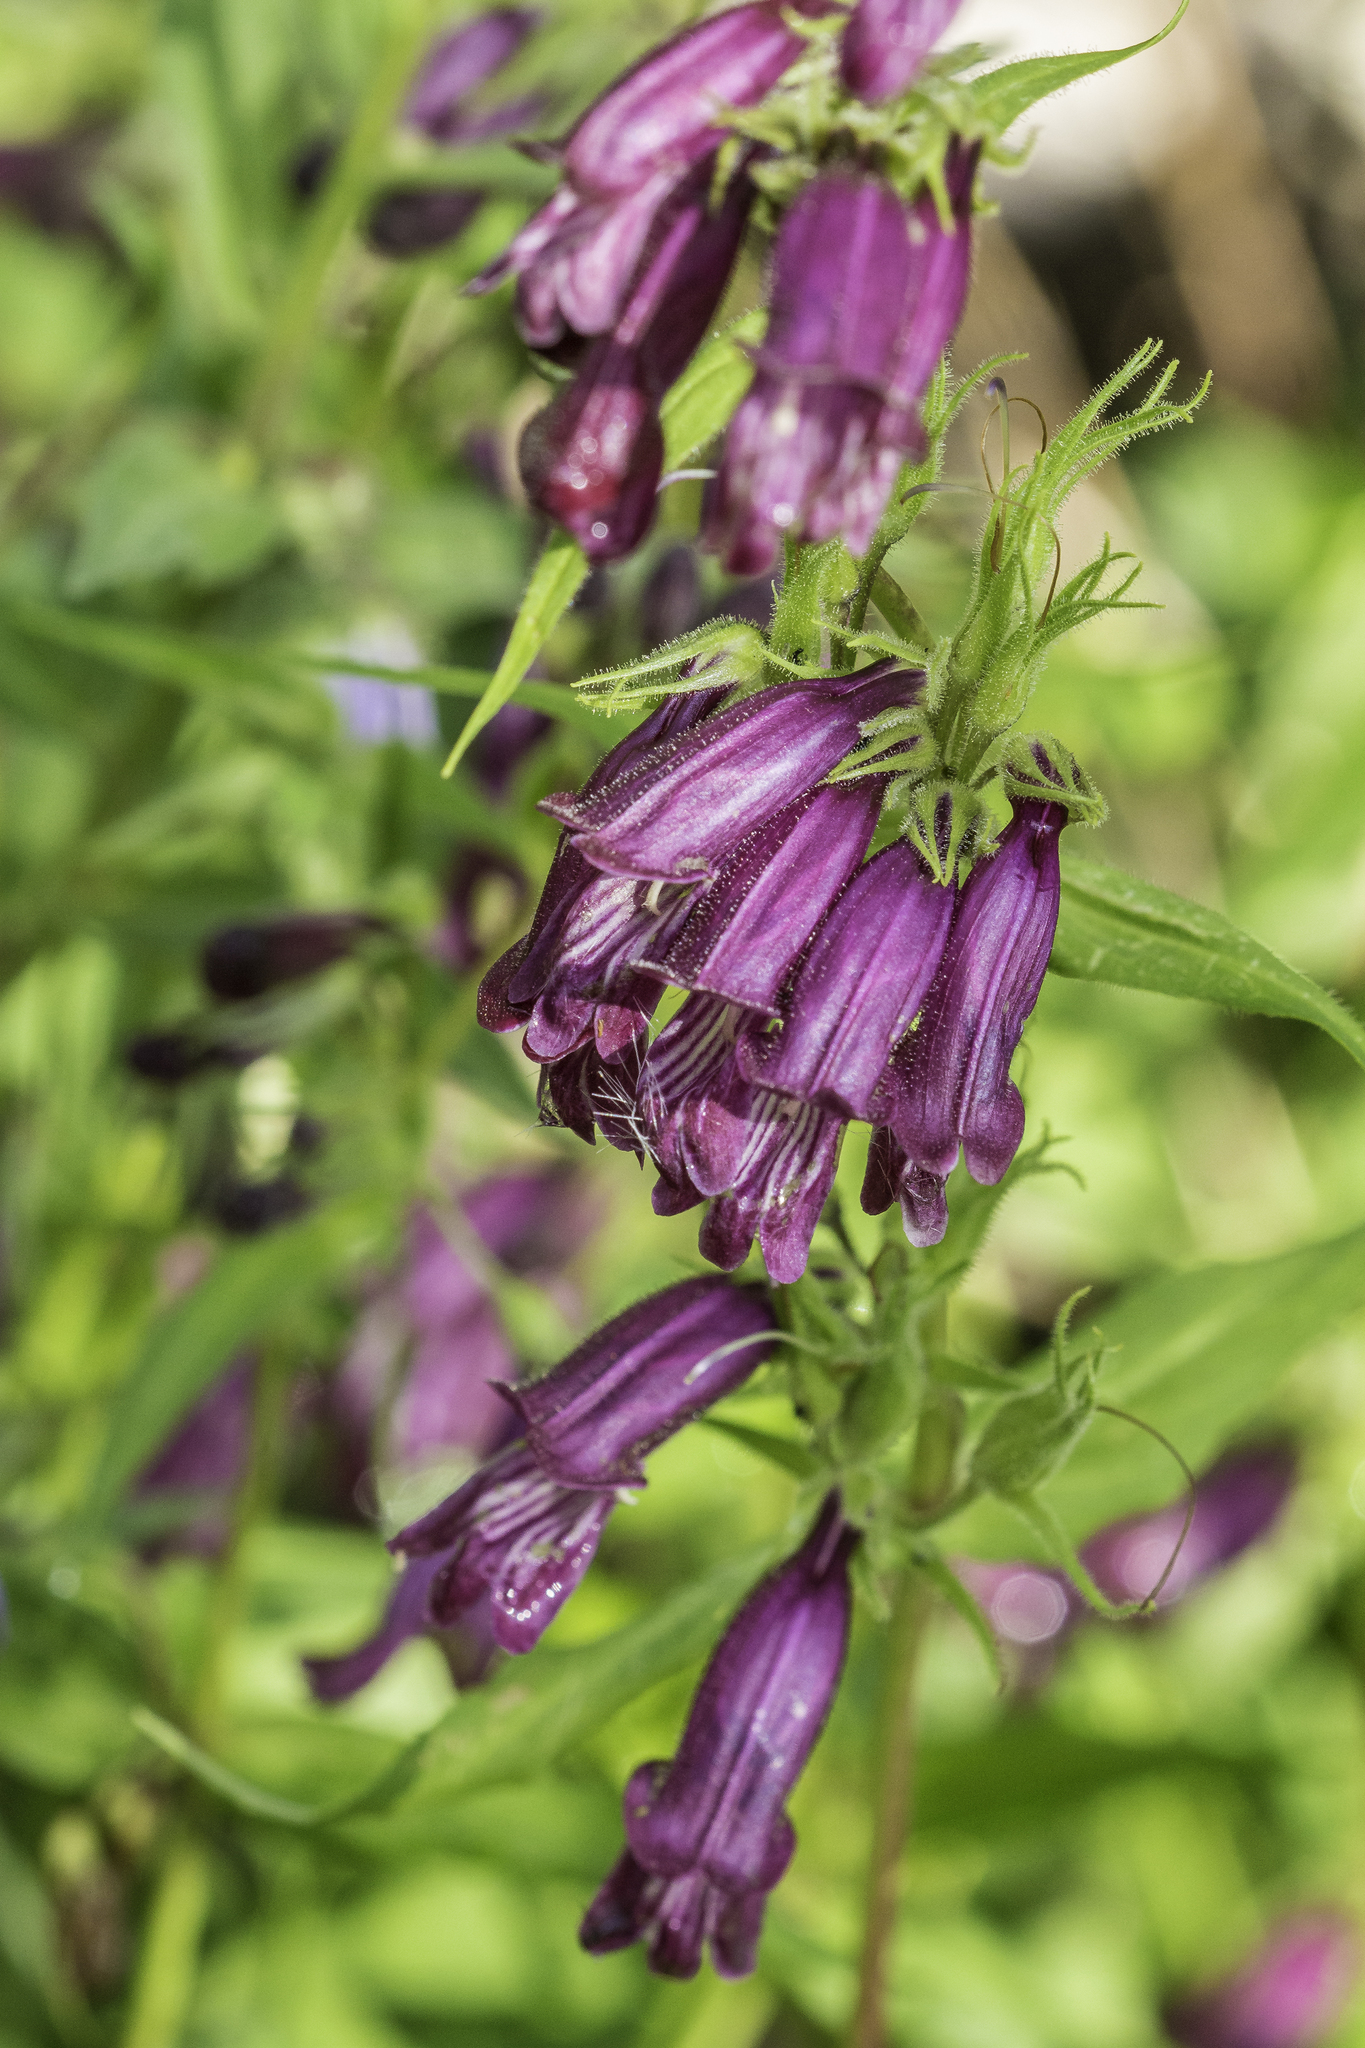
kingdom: Plantae
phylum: Tracheophyta
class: Magnoliopsida
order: Lamiales
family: Plantaginaceae
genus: Penstemon
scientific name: Penstemon whippleanus
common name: Whipple's penstemon
